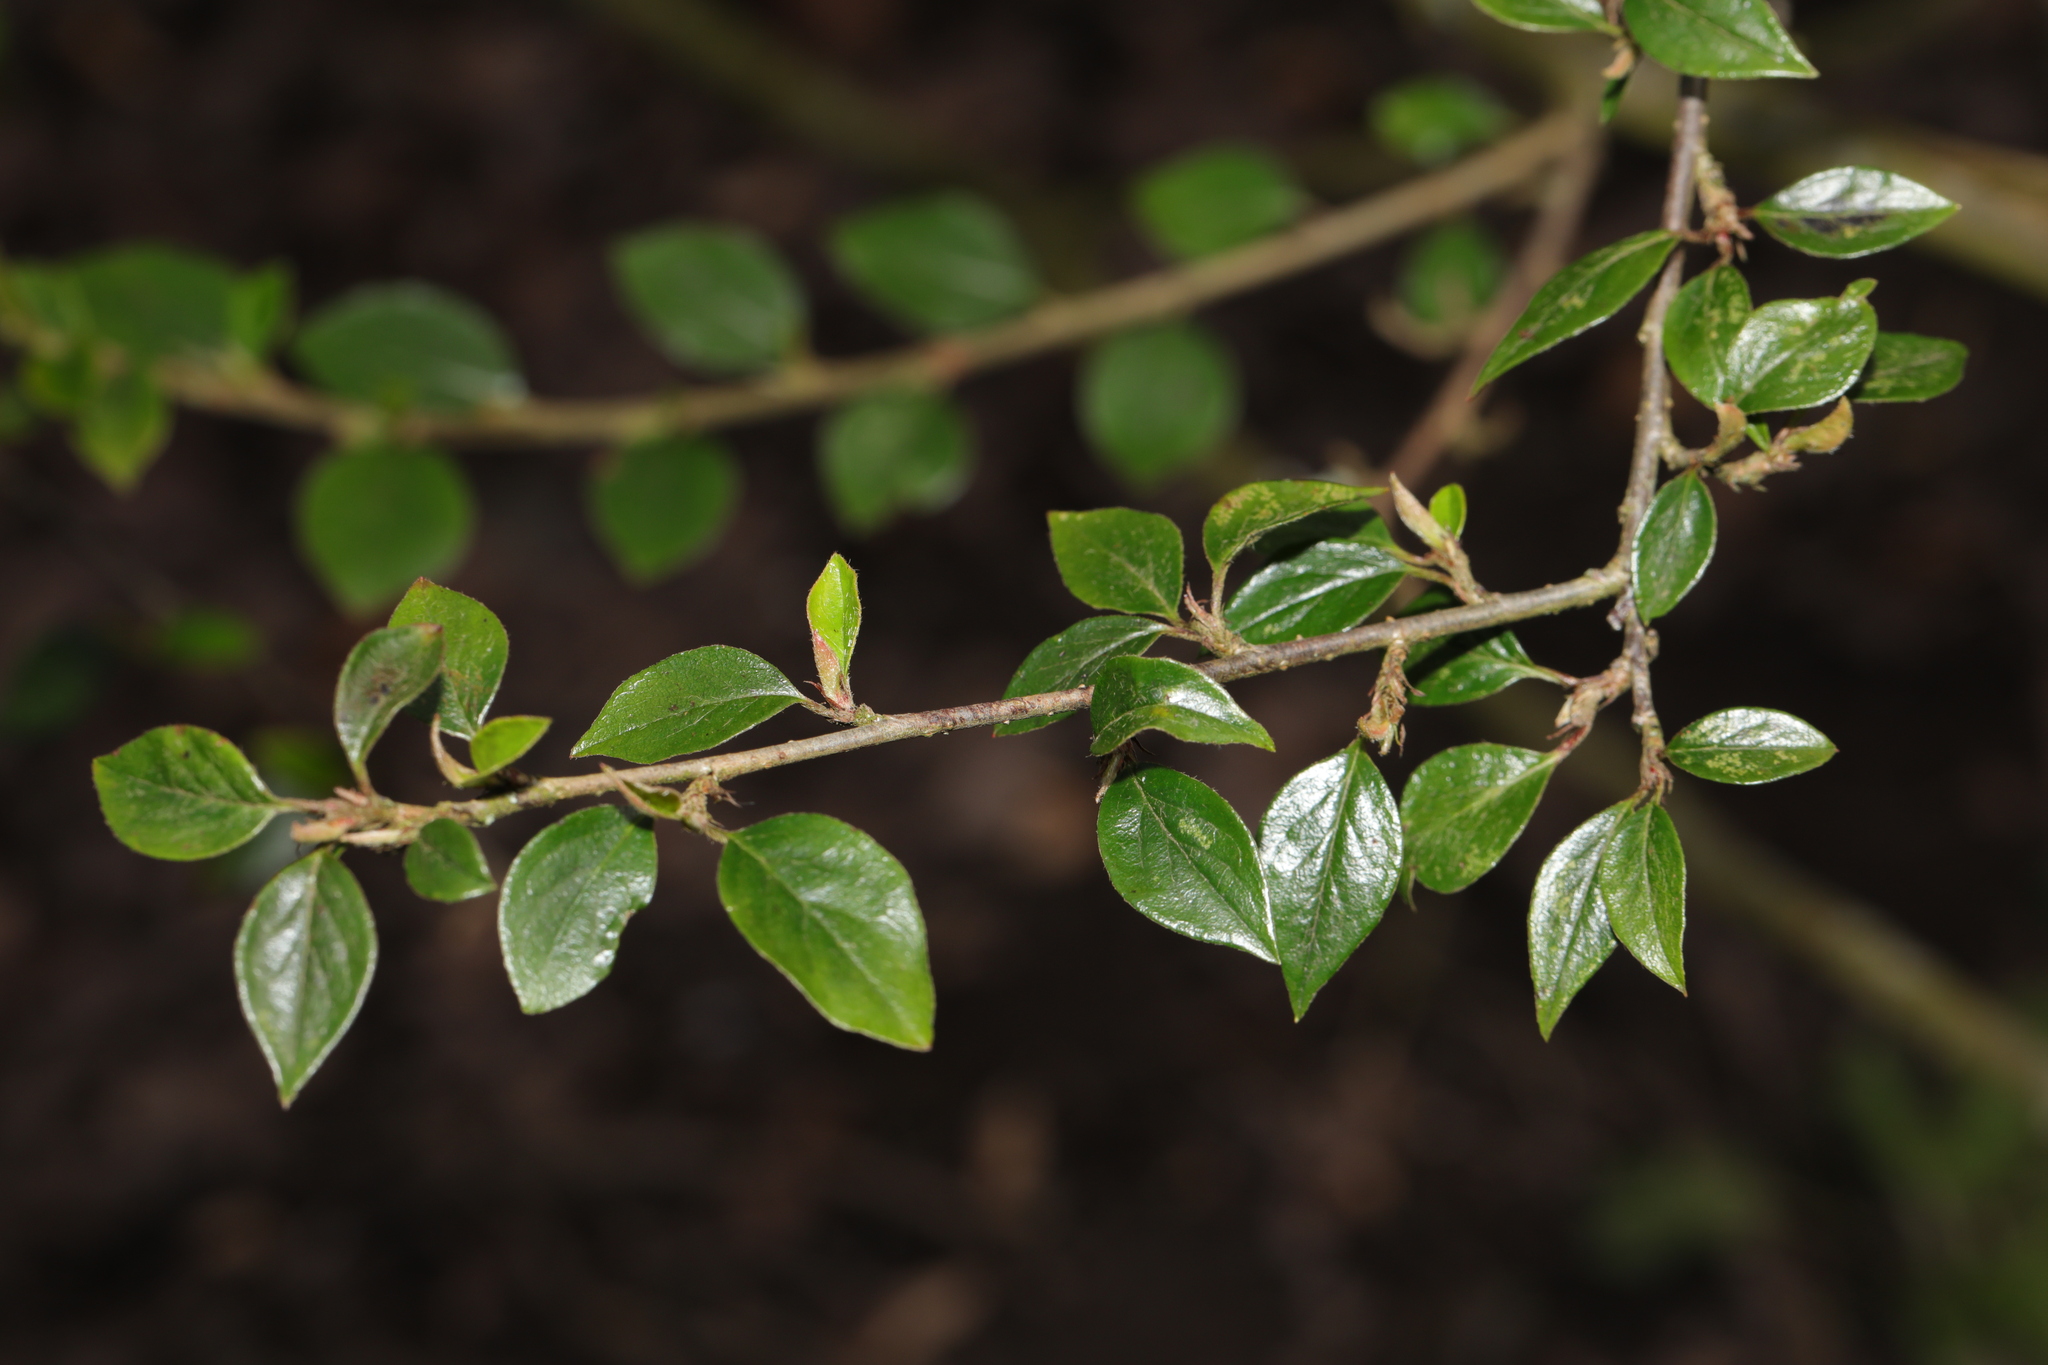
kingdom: Plantae
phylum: Tracheophyta
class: Magnoliopsida
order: Rosales
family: Rosaceae
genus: Cotoneaster
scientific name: Cotoneaster simonsii
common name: Himalayan cotoneaster
